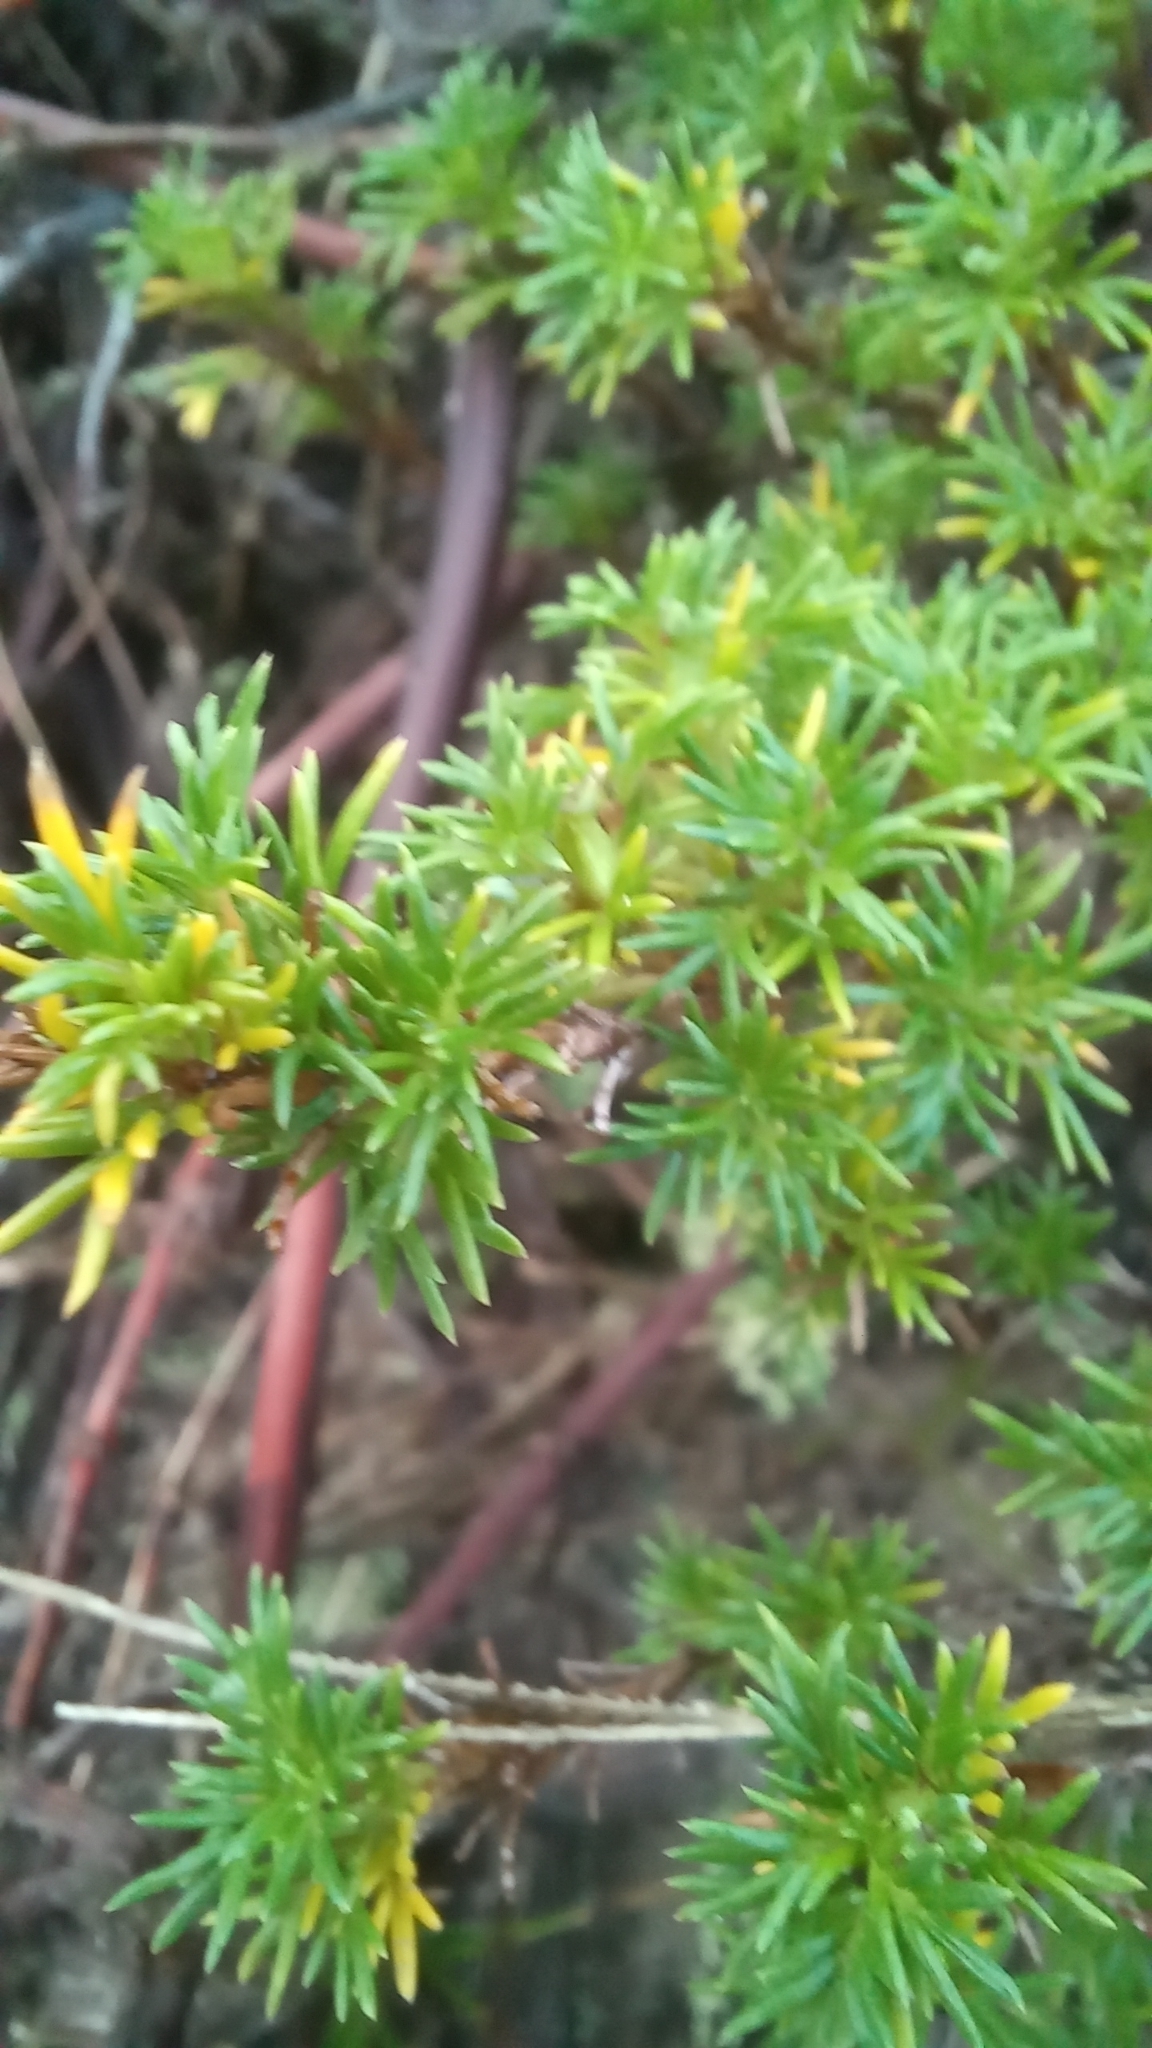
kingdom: Plantae
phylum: Tracheophyta
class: Magnoliopsida
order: Rosales
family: Rosaceae
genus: Margyricarpus
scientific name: Margyricarpus pinnatus
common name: Pearlfruit
